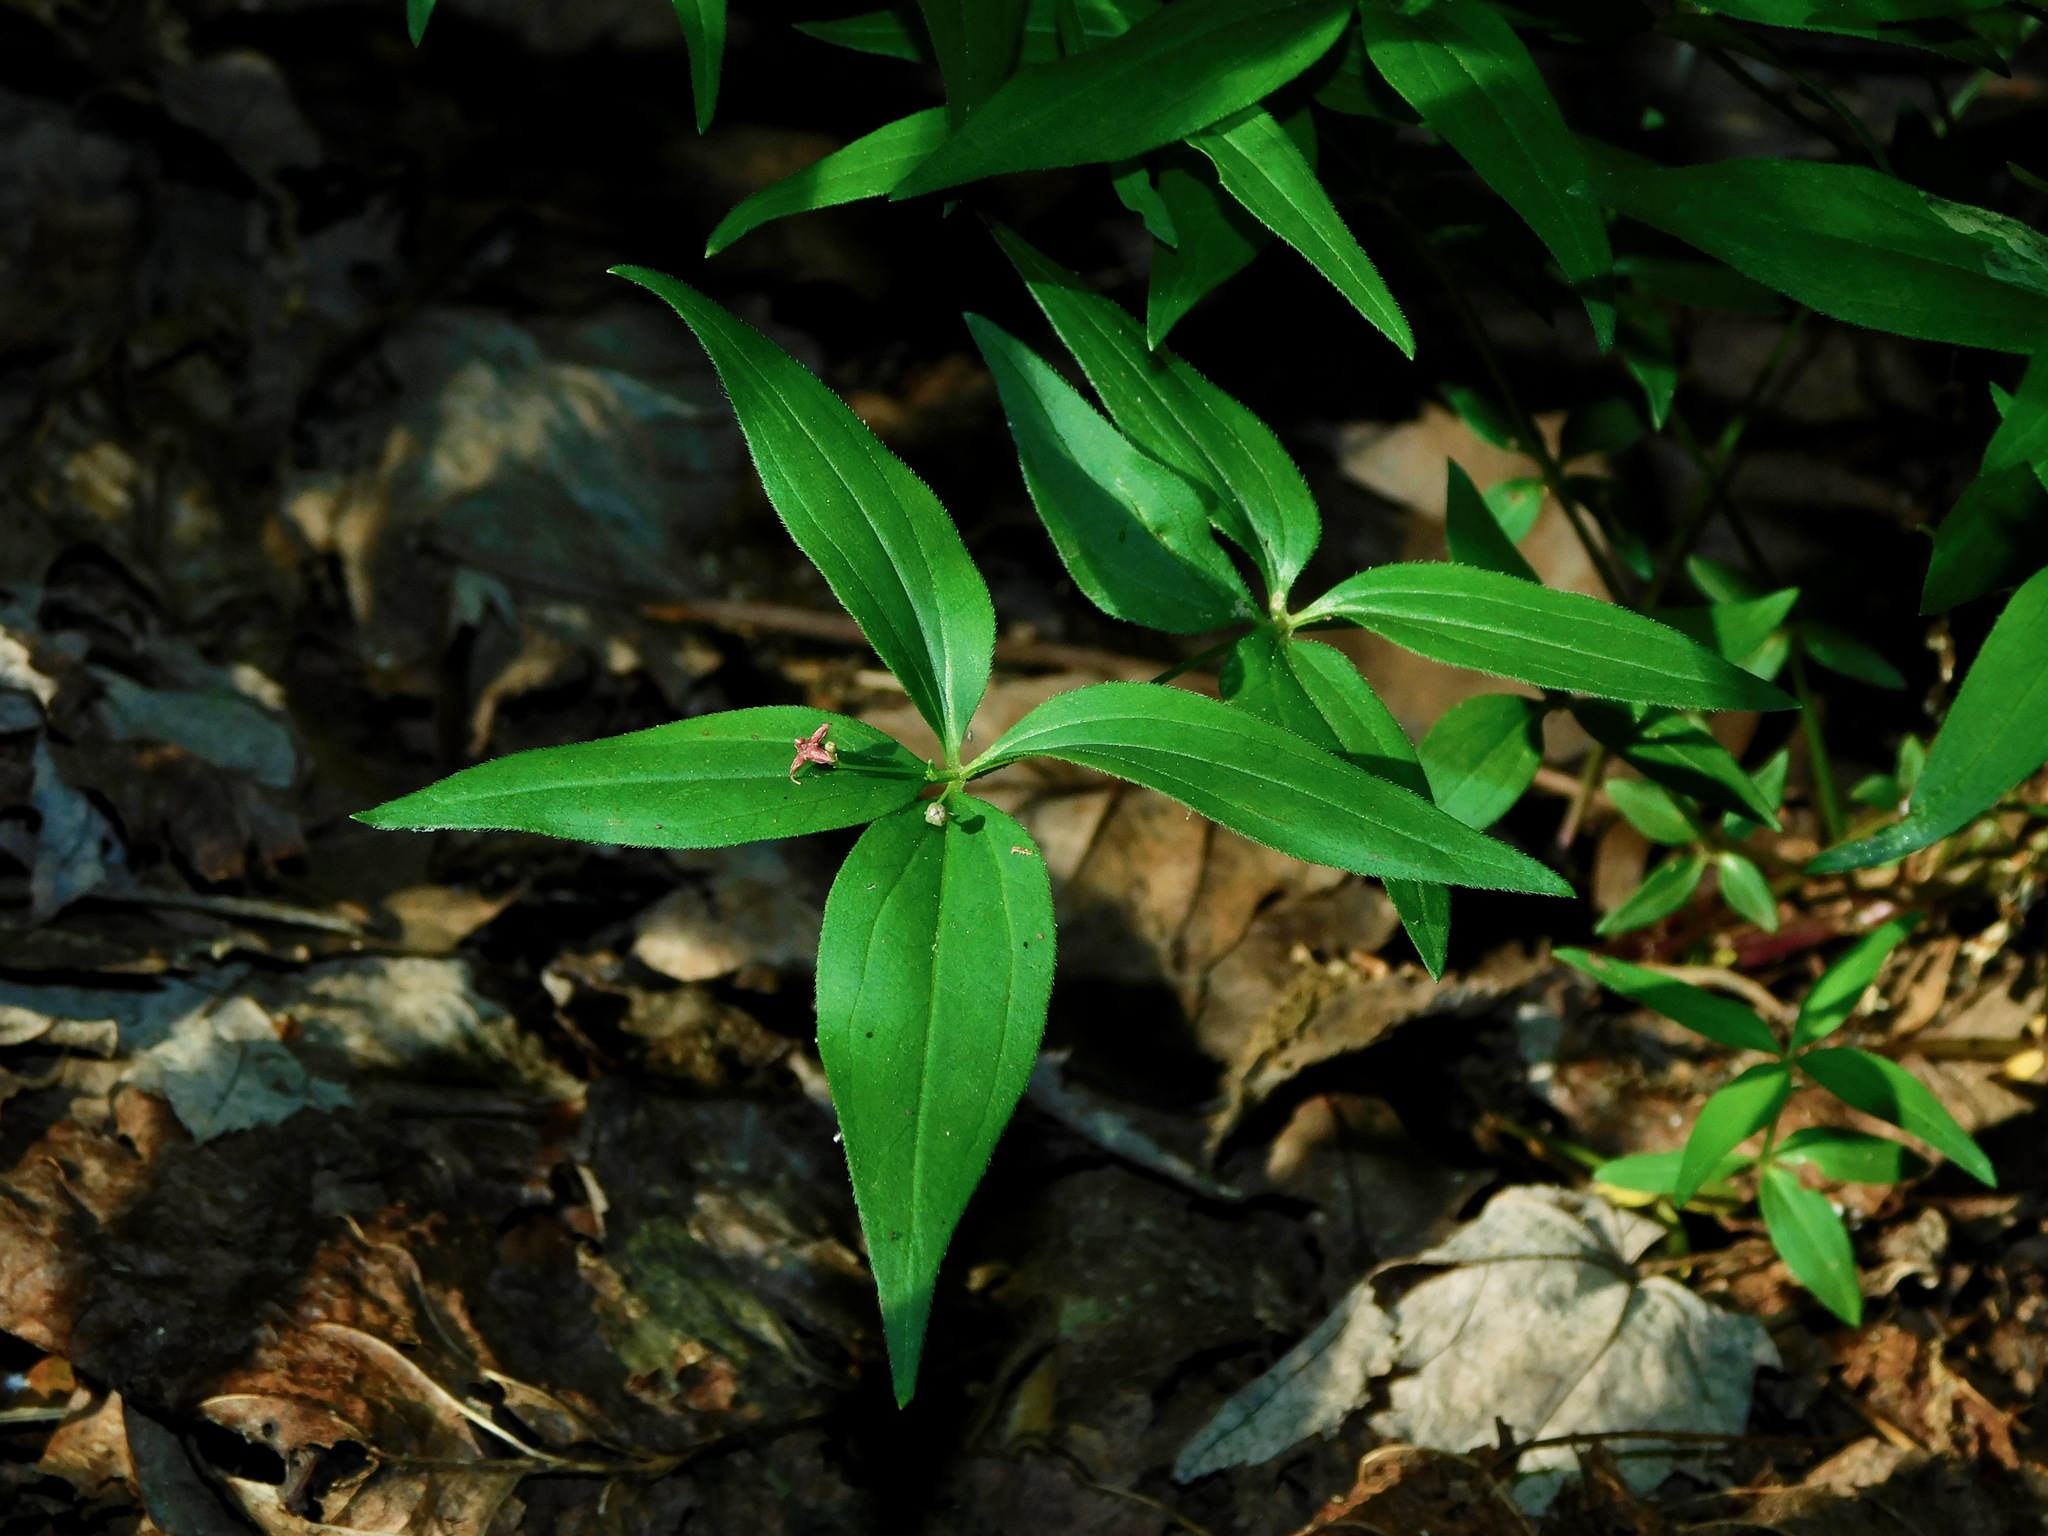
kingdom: Plantae
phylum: Tracheophyta
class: Magnoliopsida
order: Gentianales
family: Rubiaceae
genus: Galium
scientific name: Galium latifolium
